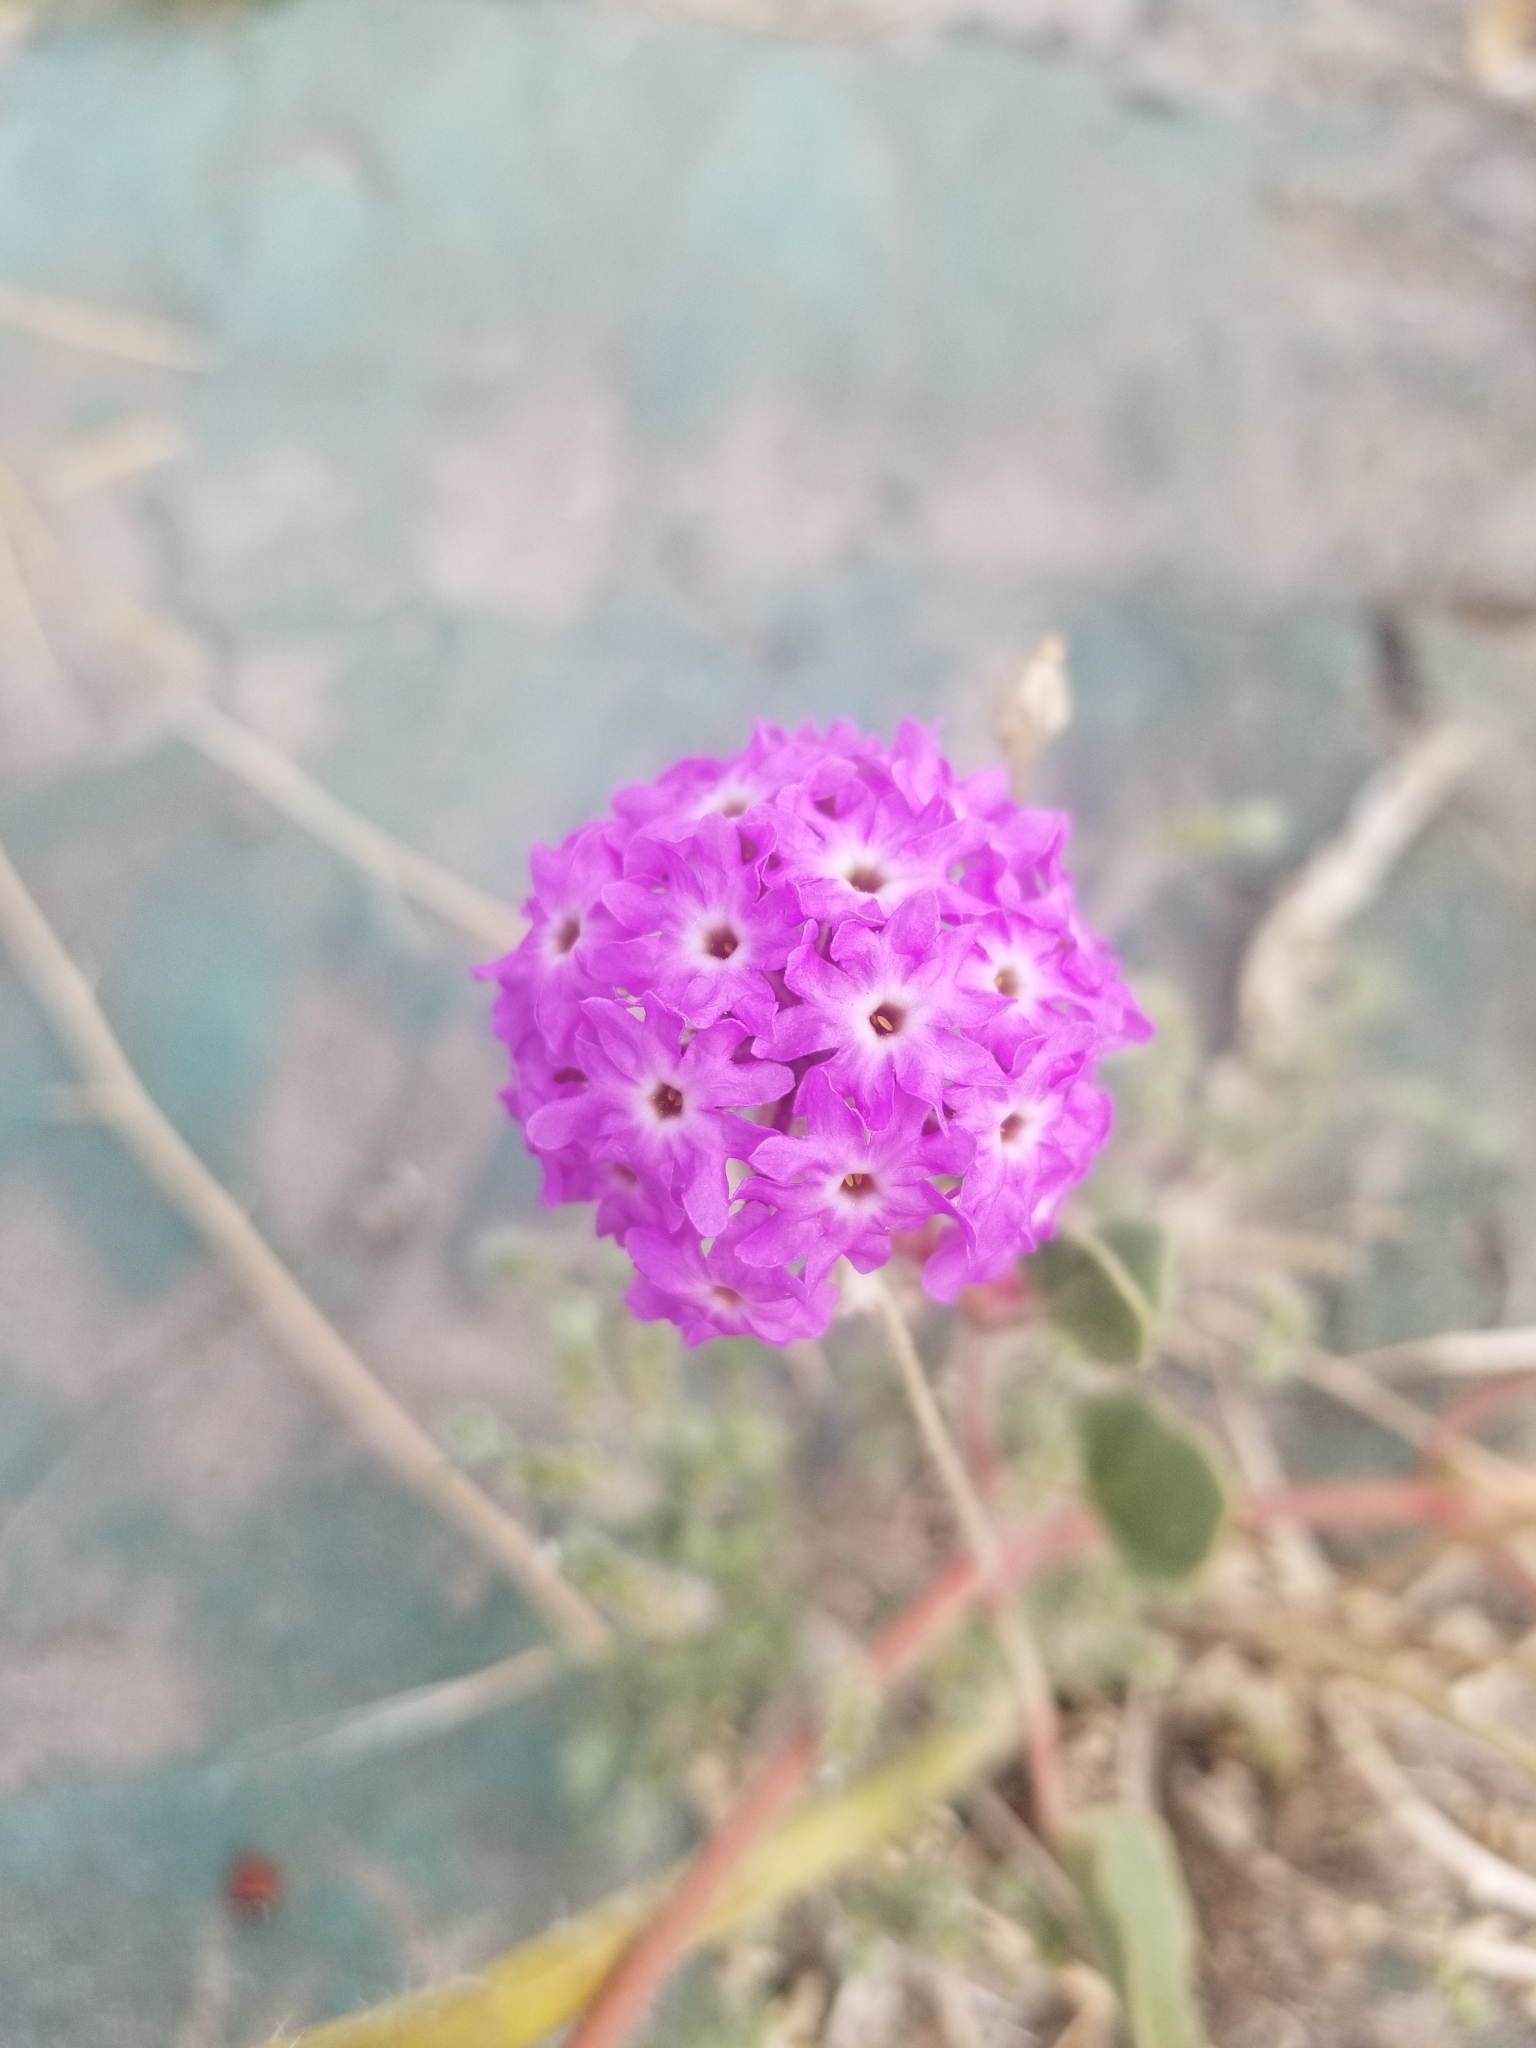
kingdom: Plantae
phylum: Tracheophyta
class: Magnoliopsida
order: Caryophyllales
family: Nyctaginaceae
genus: Abronia
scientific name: Abronia villosa
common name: Desert sand-verbena
